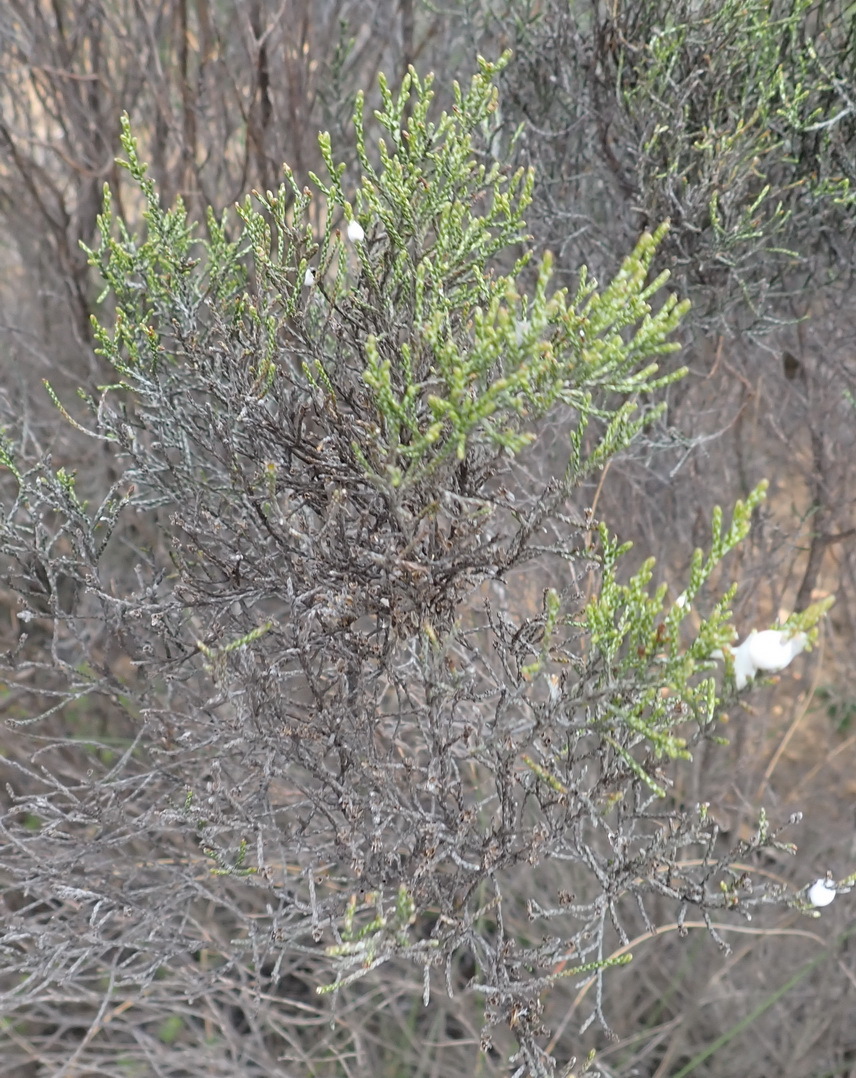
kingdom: Plantae
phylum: Tracheophyta
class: Magnoliopsida
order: Asterales
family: Asteraceae
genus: Dicerothamnus
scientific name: Dicerothamnus rhinocerotis
